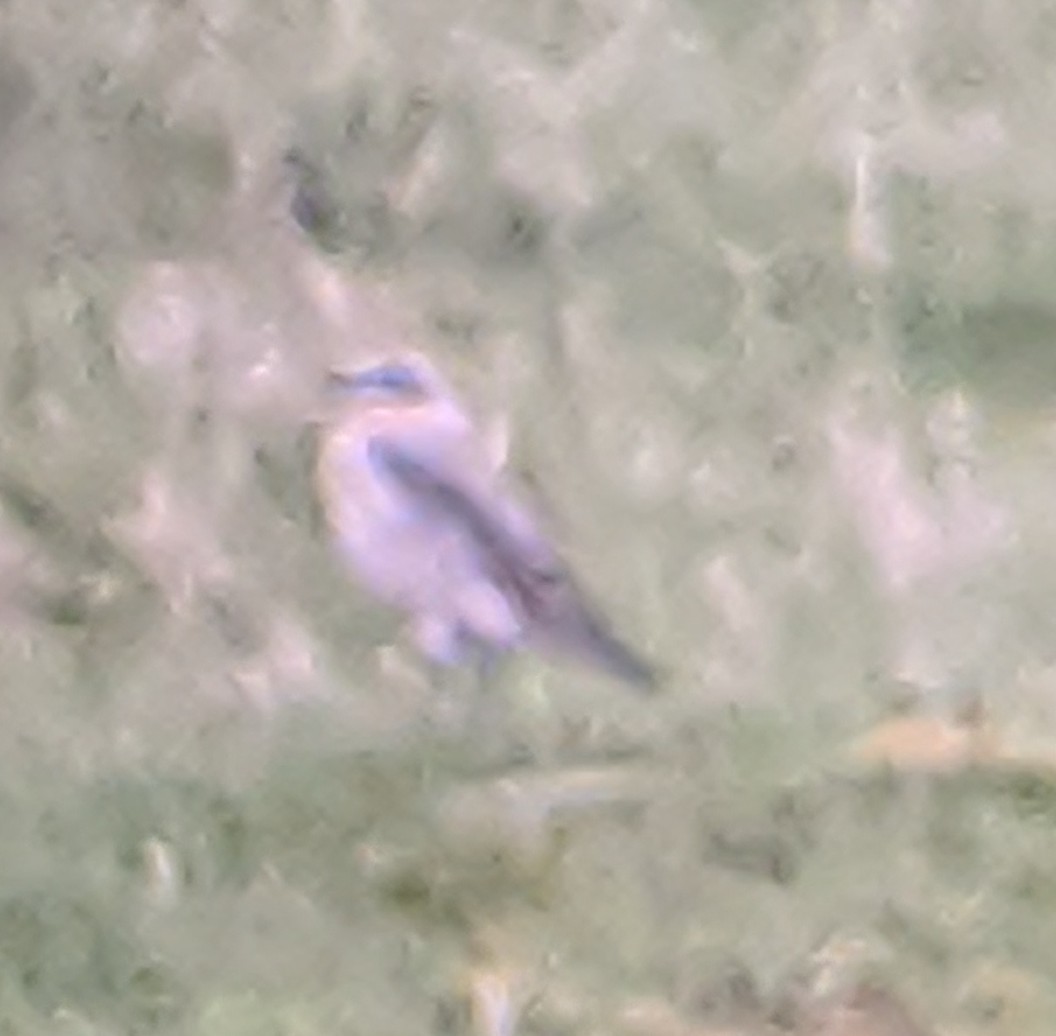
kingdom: Animalia
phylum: Chordata
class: Aves
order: Passeriformes
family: Muscicapidae
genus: Oenanthe
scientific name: Oenanthe oenanthe
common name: Northern wheatear
